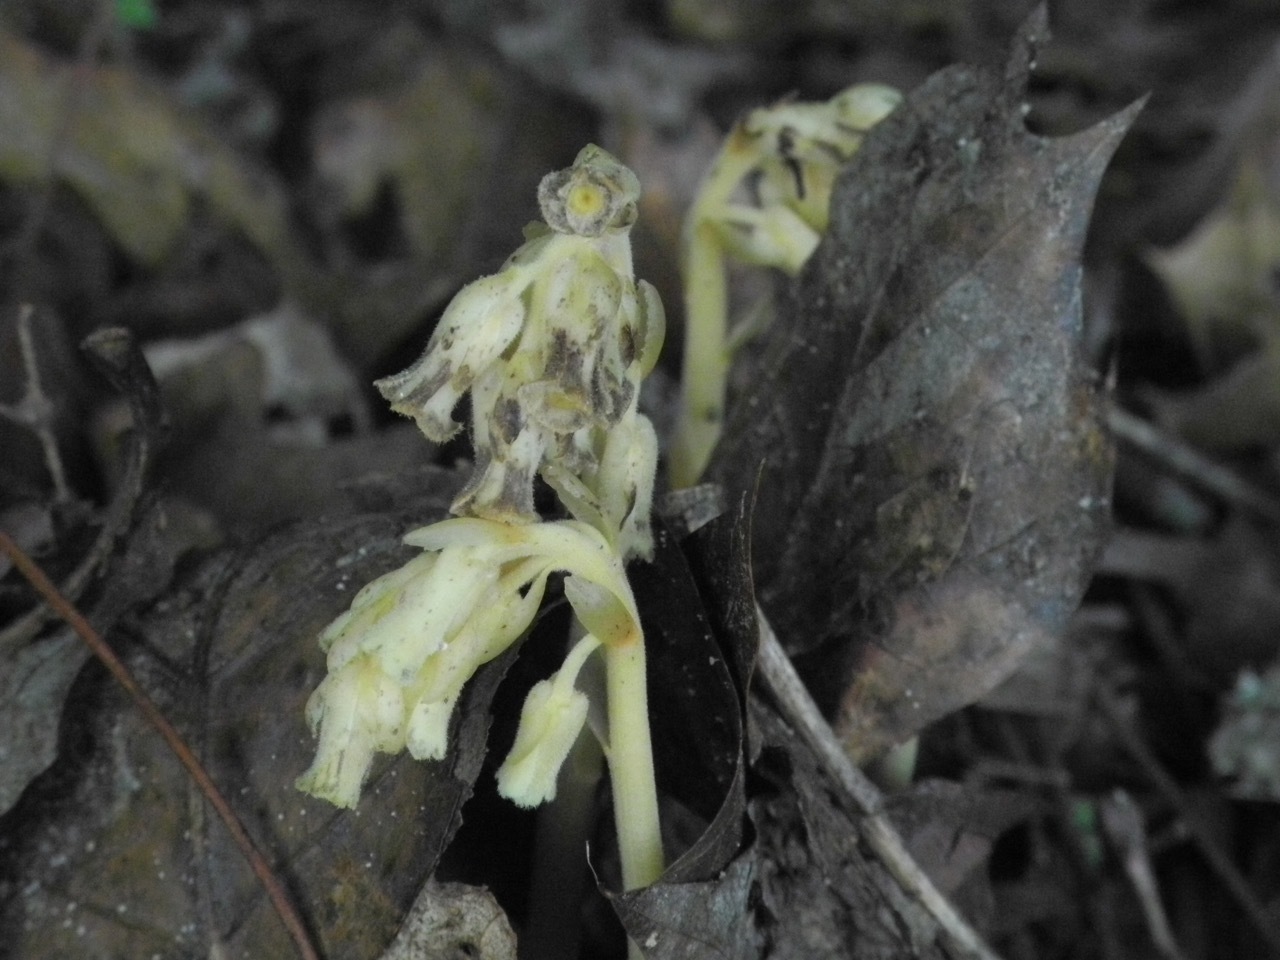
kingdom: Plantae
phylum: Tracheophyta
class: Magnoliopsida
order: Ericales
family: Ericaceae
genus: Hypopitys
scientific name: Hypopitys monotropa
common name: Yellow bird's-nest
